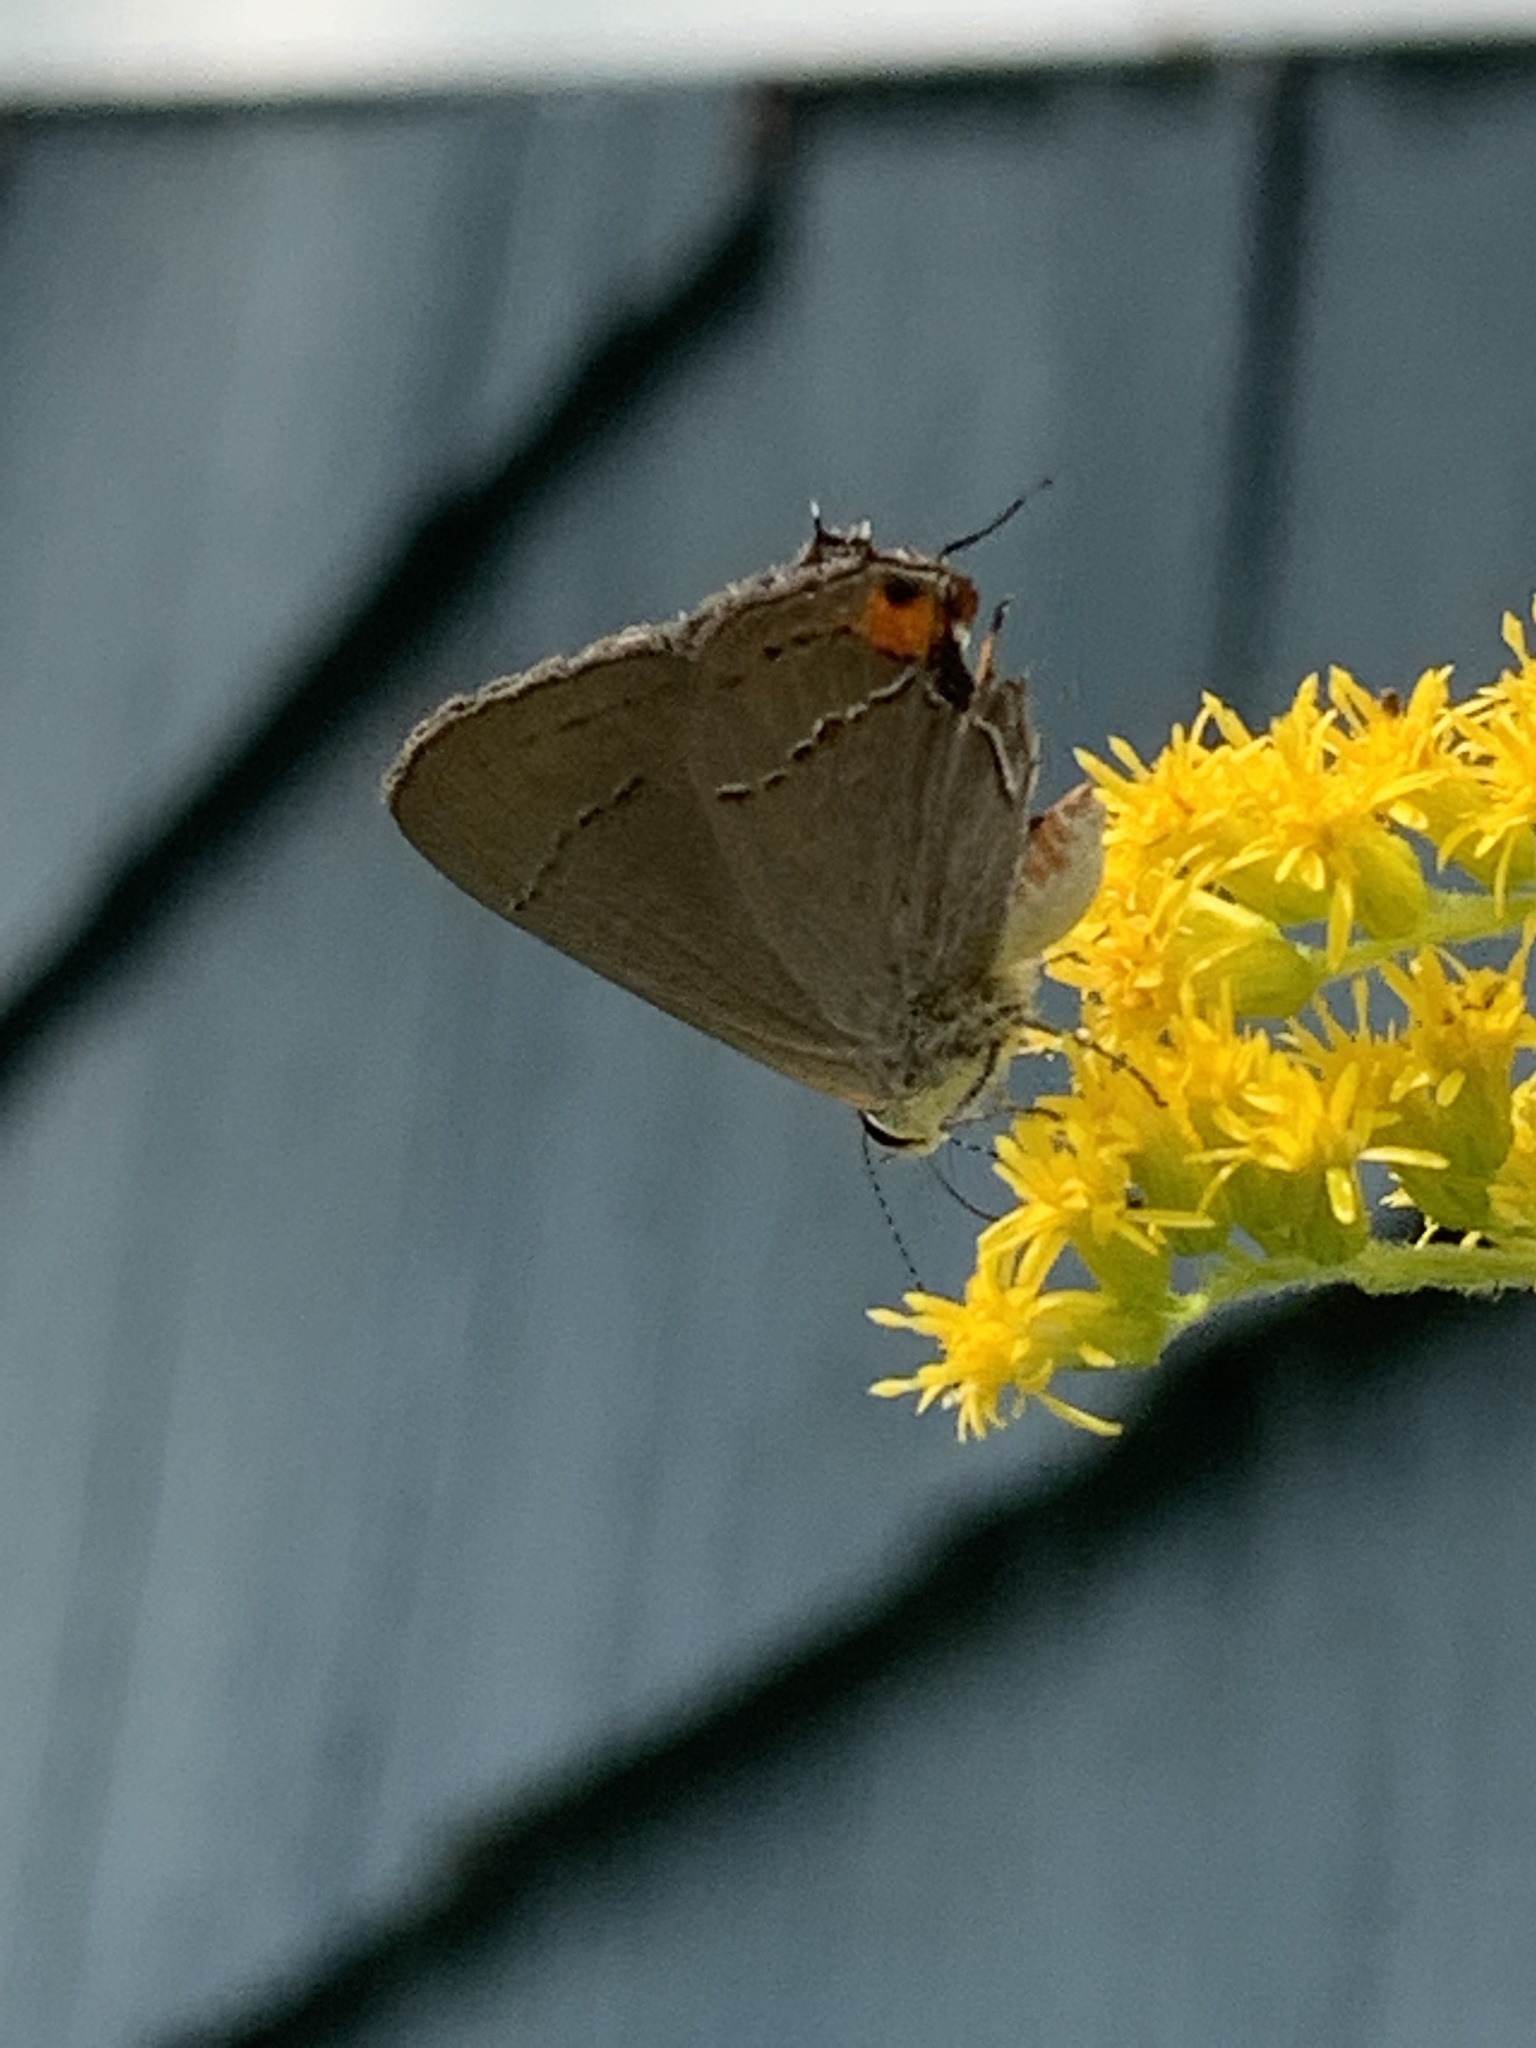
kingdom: Animalia
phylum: Arthropoda
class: Insecta
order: Lepidoptera
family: Lycaenidae
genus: Strymon
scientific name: Strymon melinus
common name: Gray hairstreak
